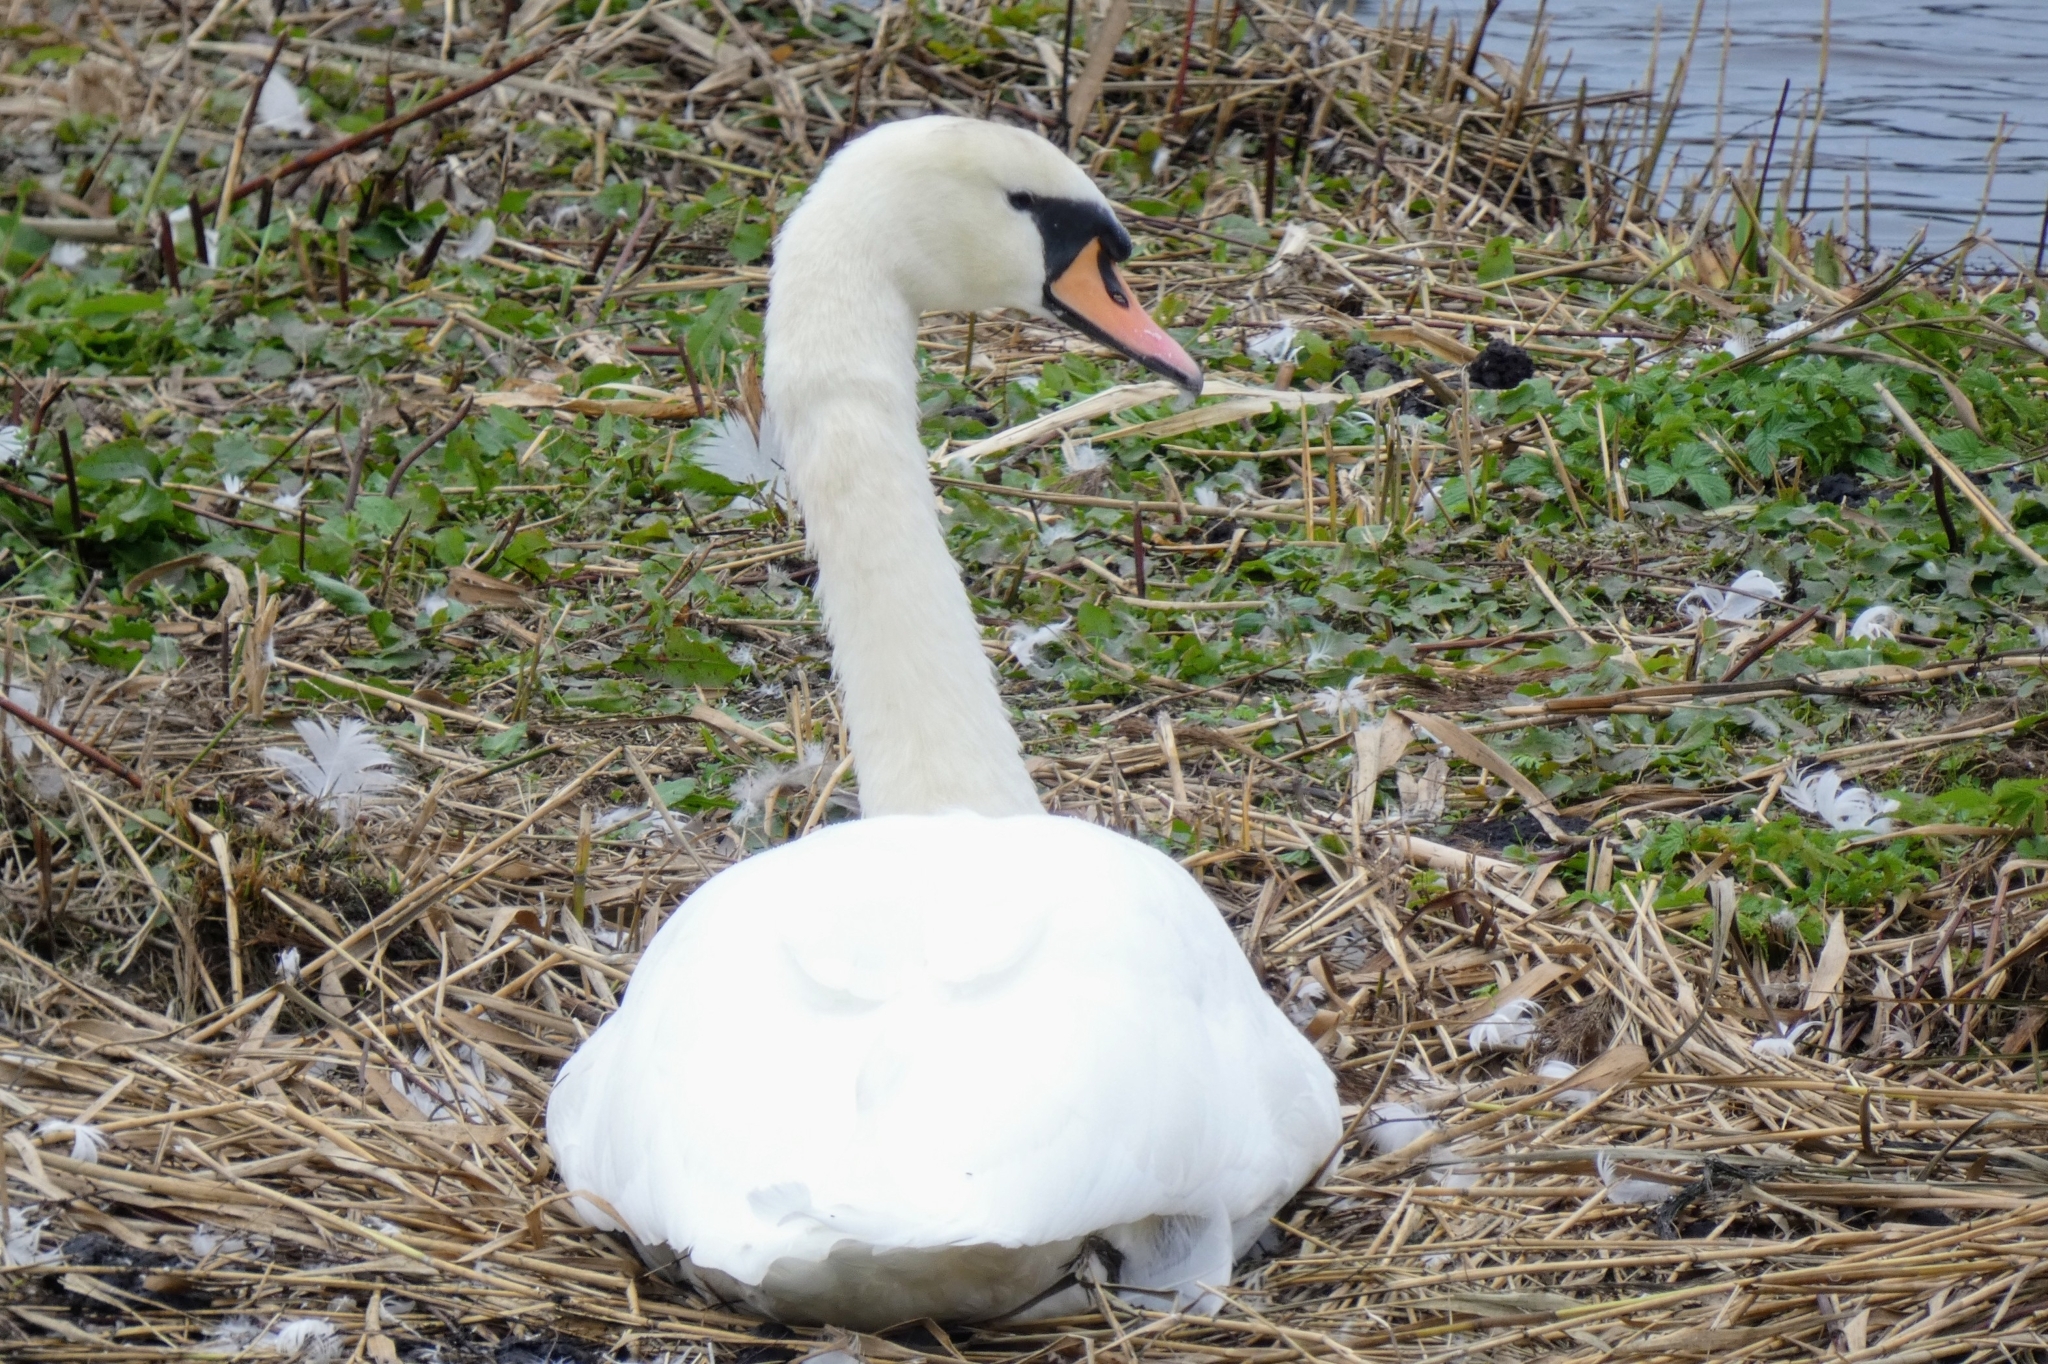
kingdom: Animalia
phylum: Chordata
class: Aves
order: Anseriformes
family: Anatidae
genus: Cygnus
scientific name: Cygnus olor
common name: Mute swan
